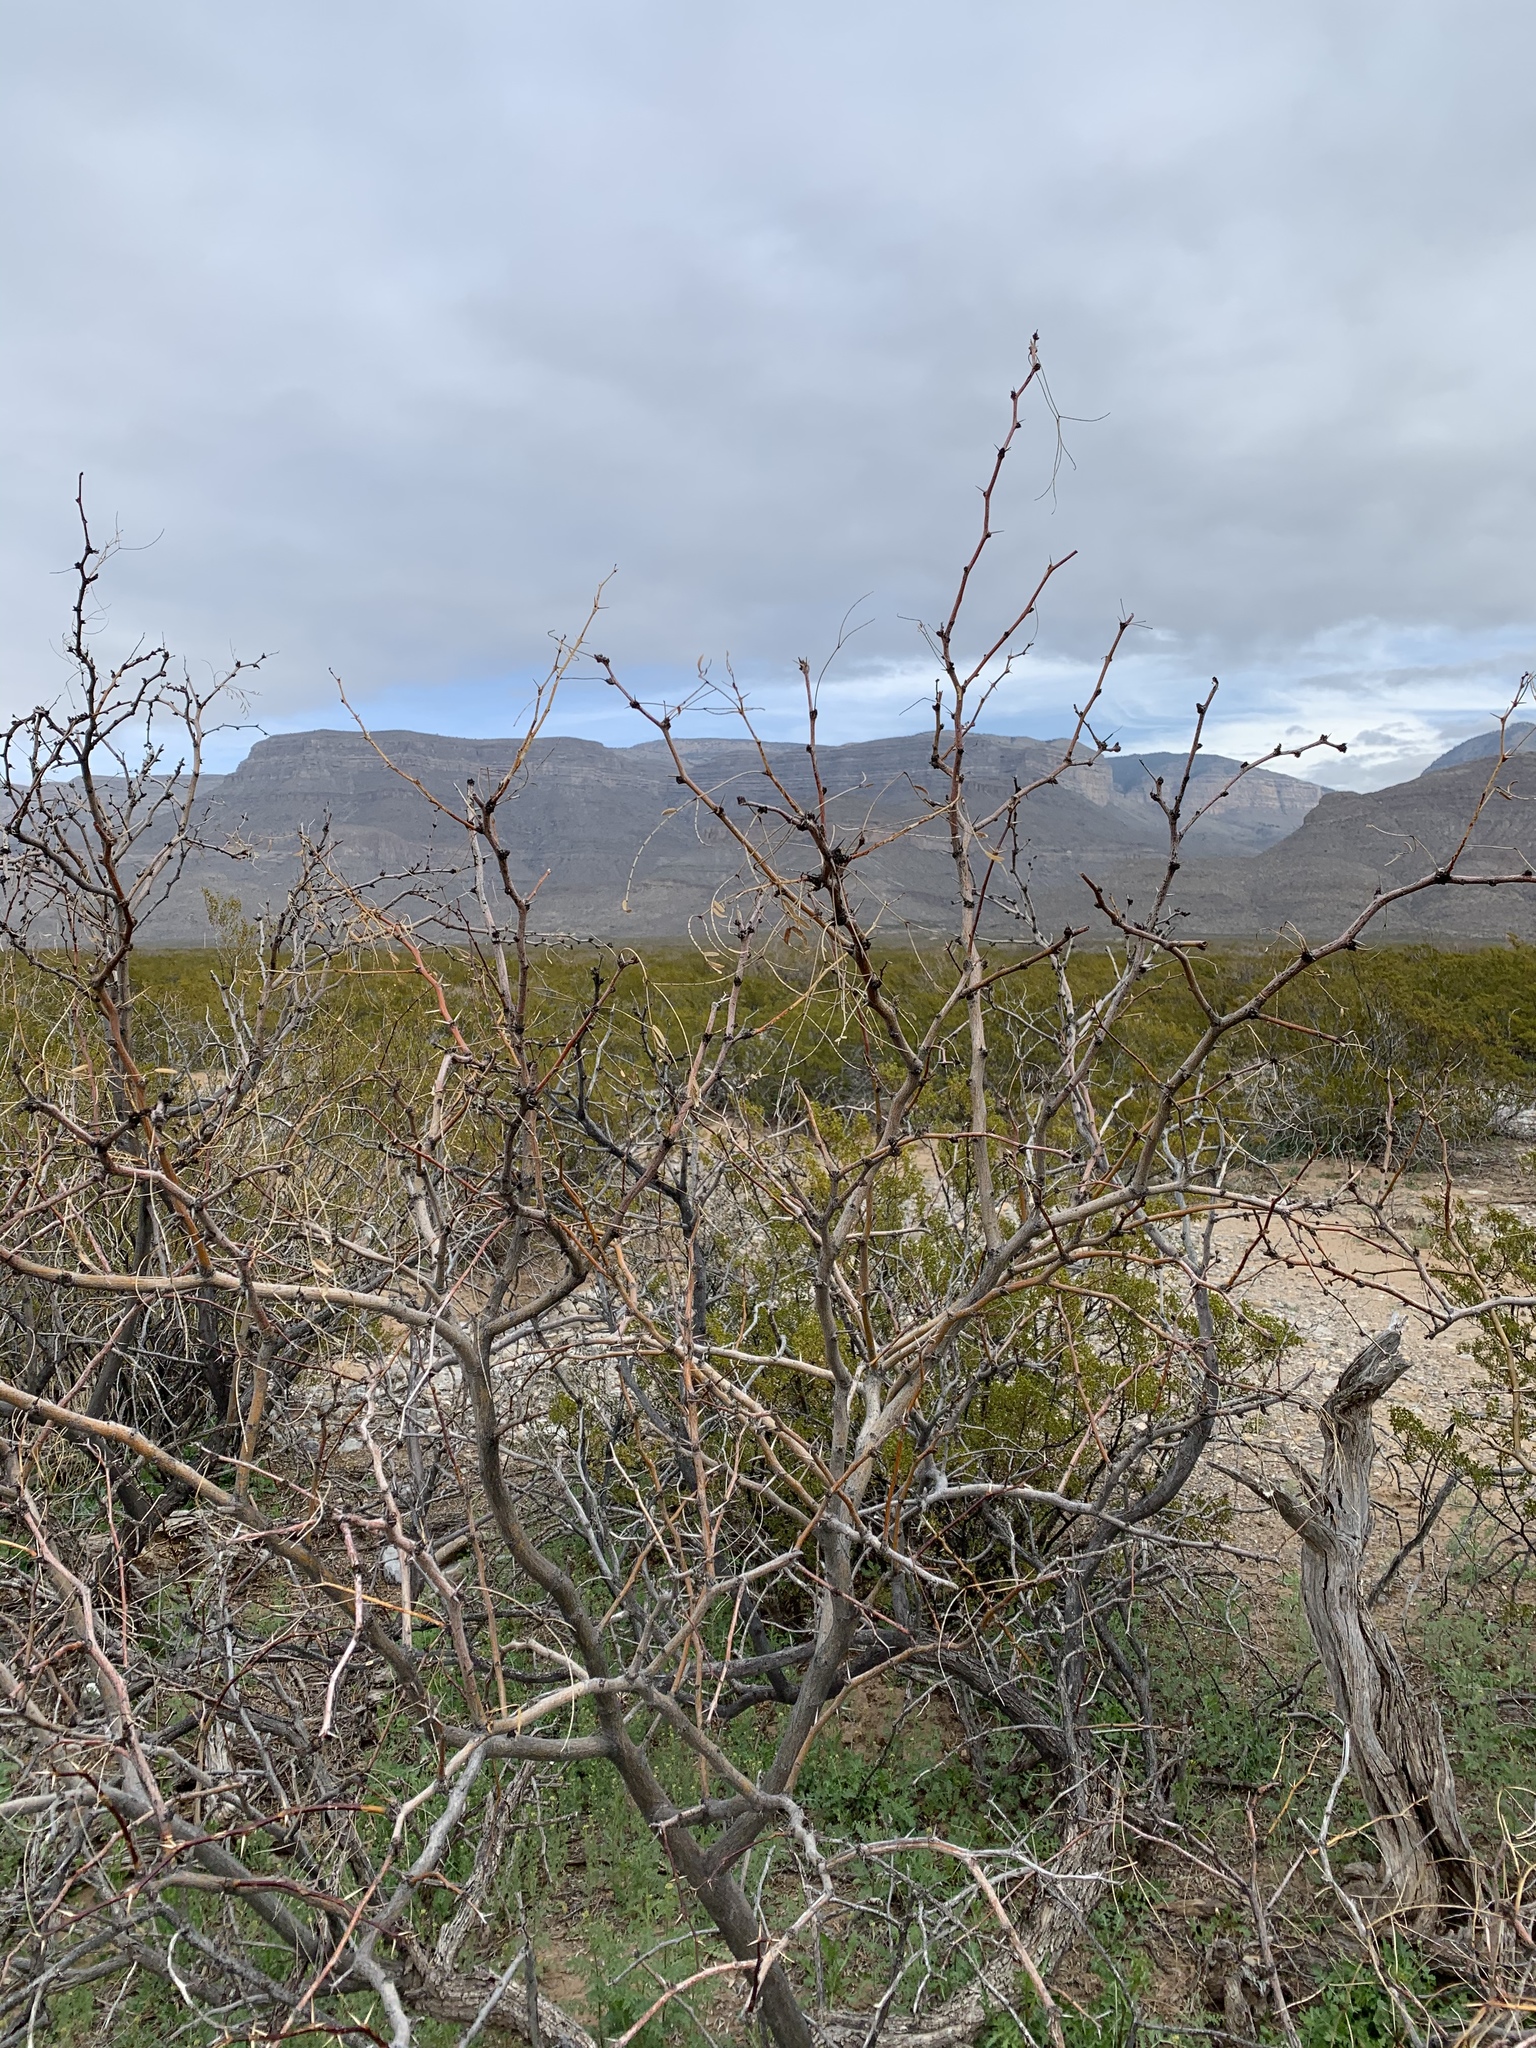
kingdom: Plantae
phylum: Tracheophyta
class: Magnoliopsida
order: Fabales
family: Fabaceae
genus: Prosopis
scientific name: Prosopis glandulosa
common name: Honey mesquite
